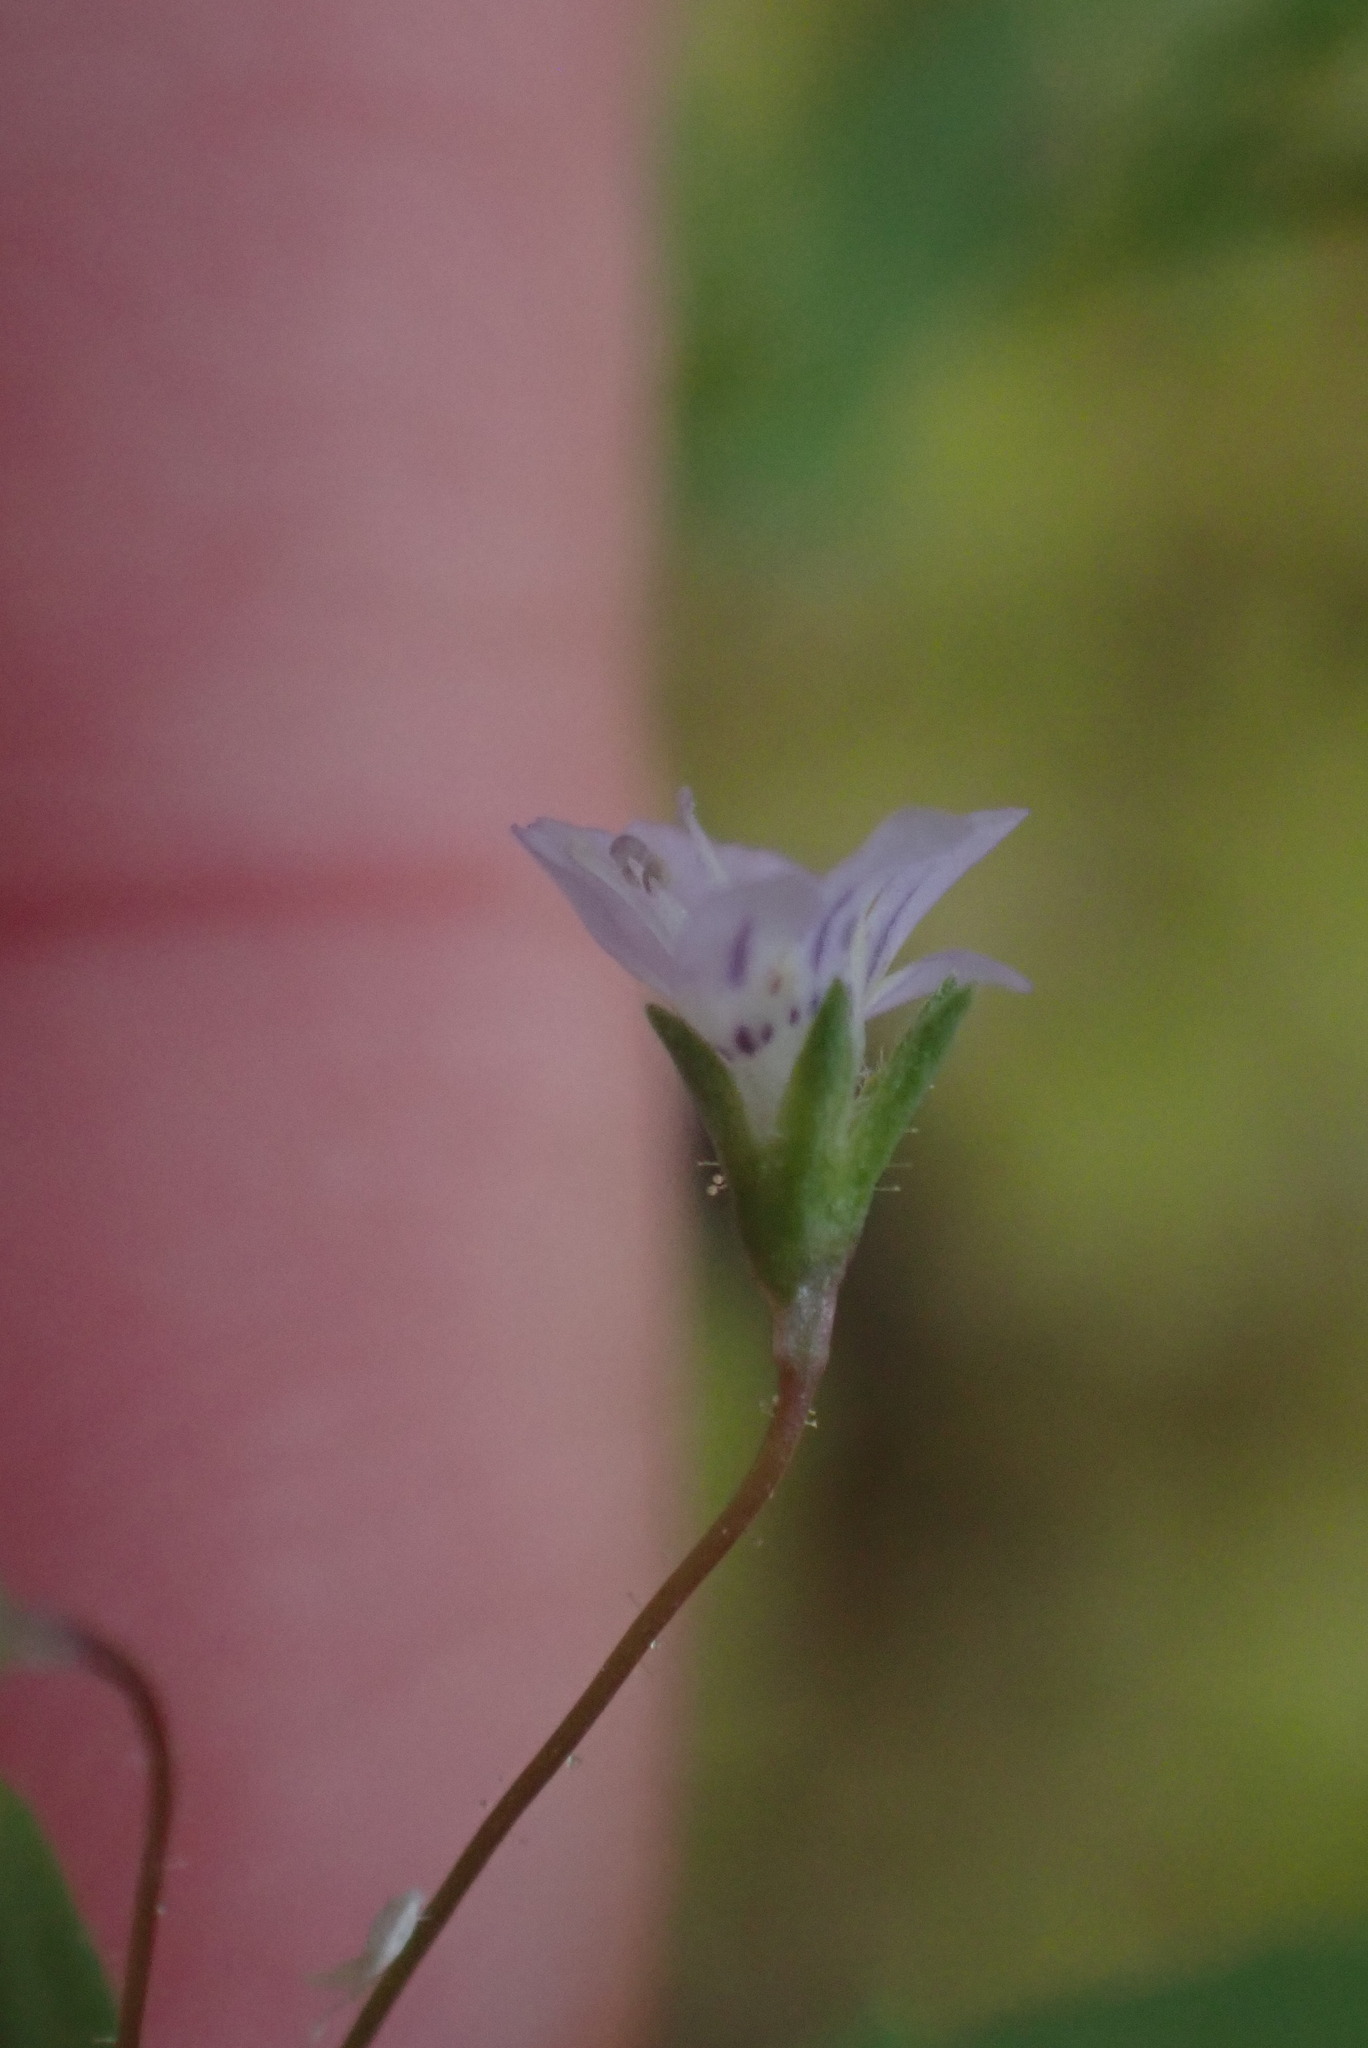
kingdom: Plantae
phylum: Tracheophyta
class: Magnoliopsida
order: Lamiales
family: Plantaginaceae
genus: Tonella
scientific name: Tonella tenella
